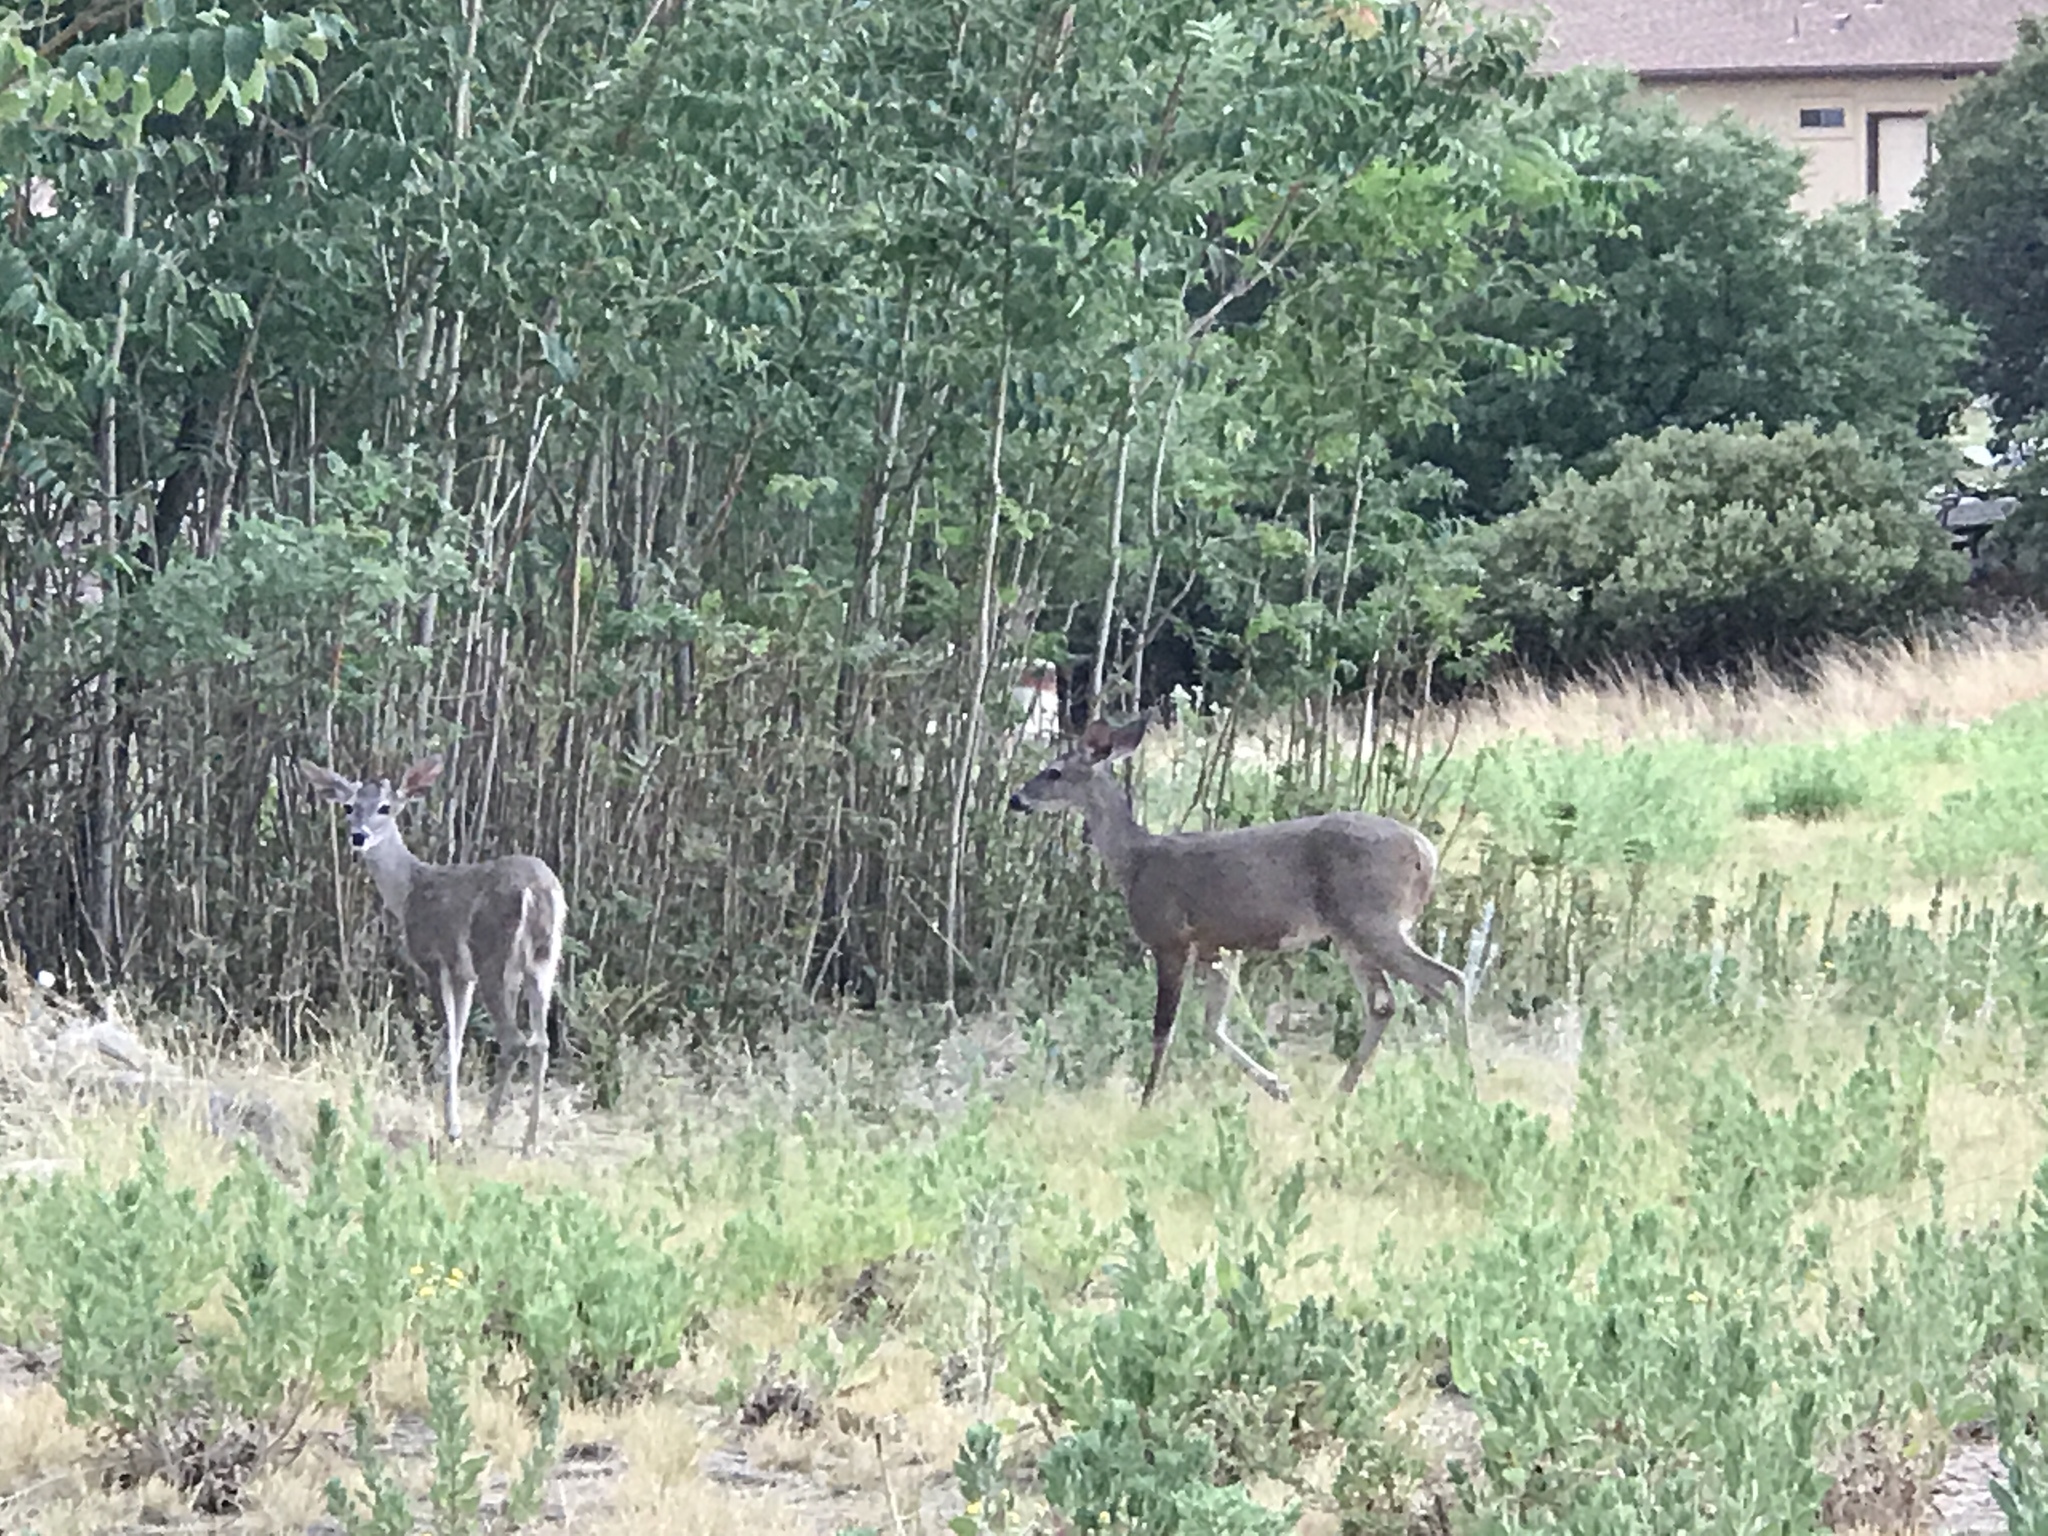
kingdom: Animalia
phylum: Chordata
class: Mammalia
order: Artiodactyla
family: Cervidae
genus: Odocoileus
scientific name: Odocoileus virginianus
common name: White-tailed deer
